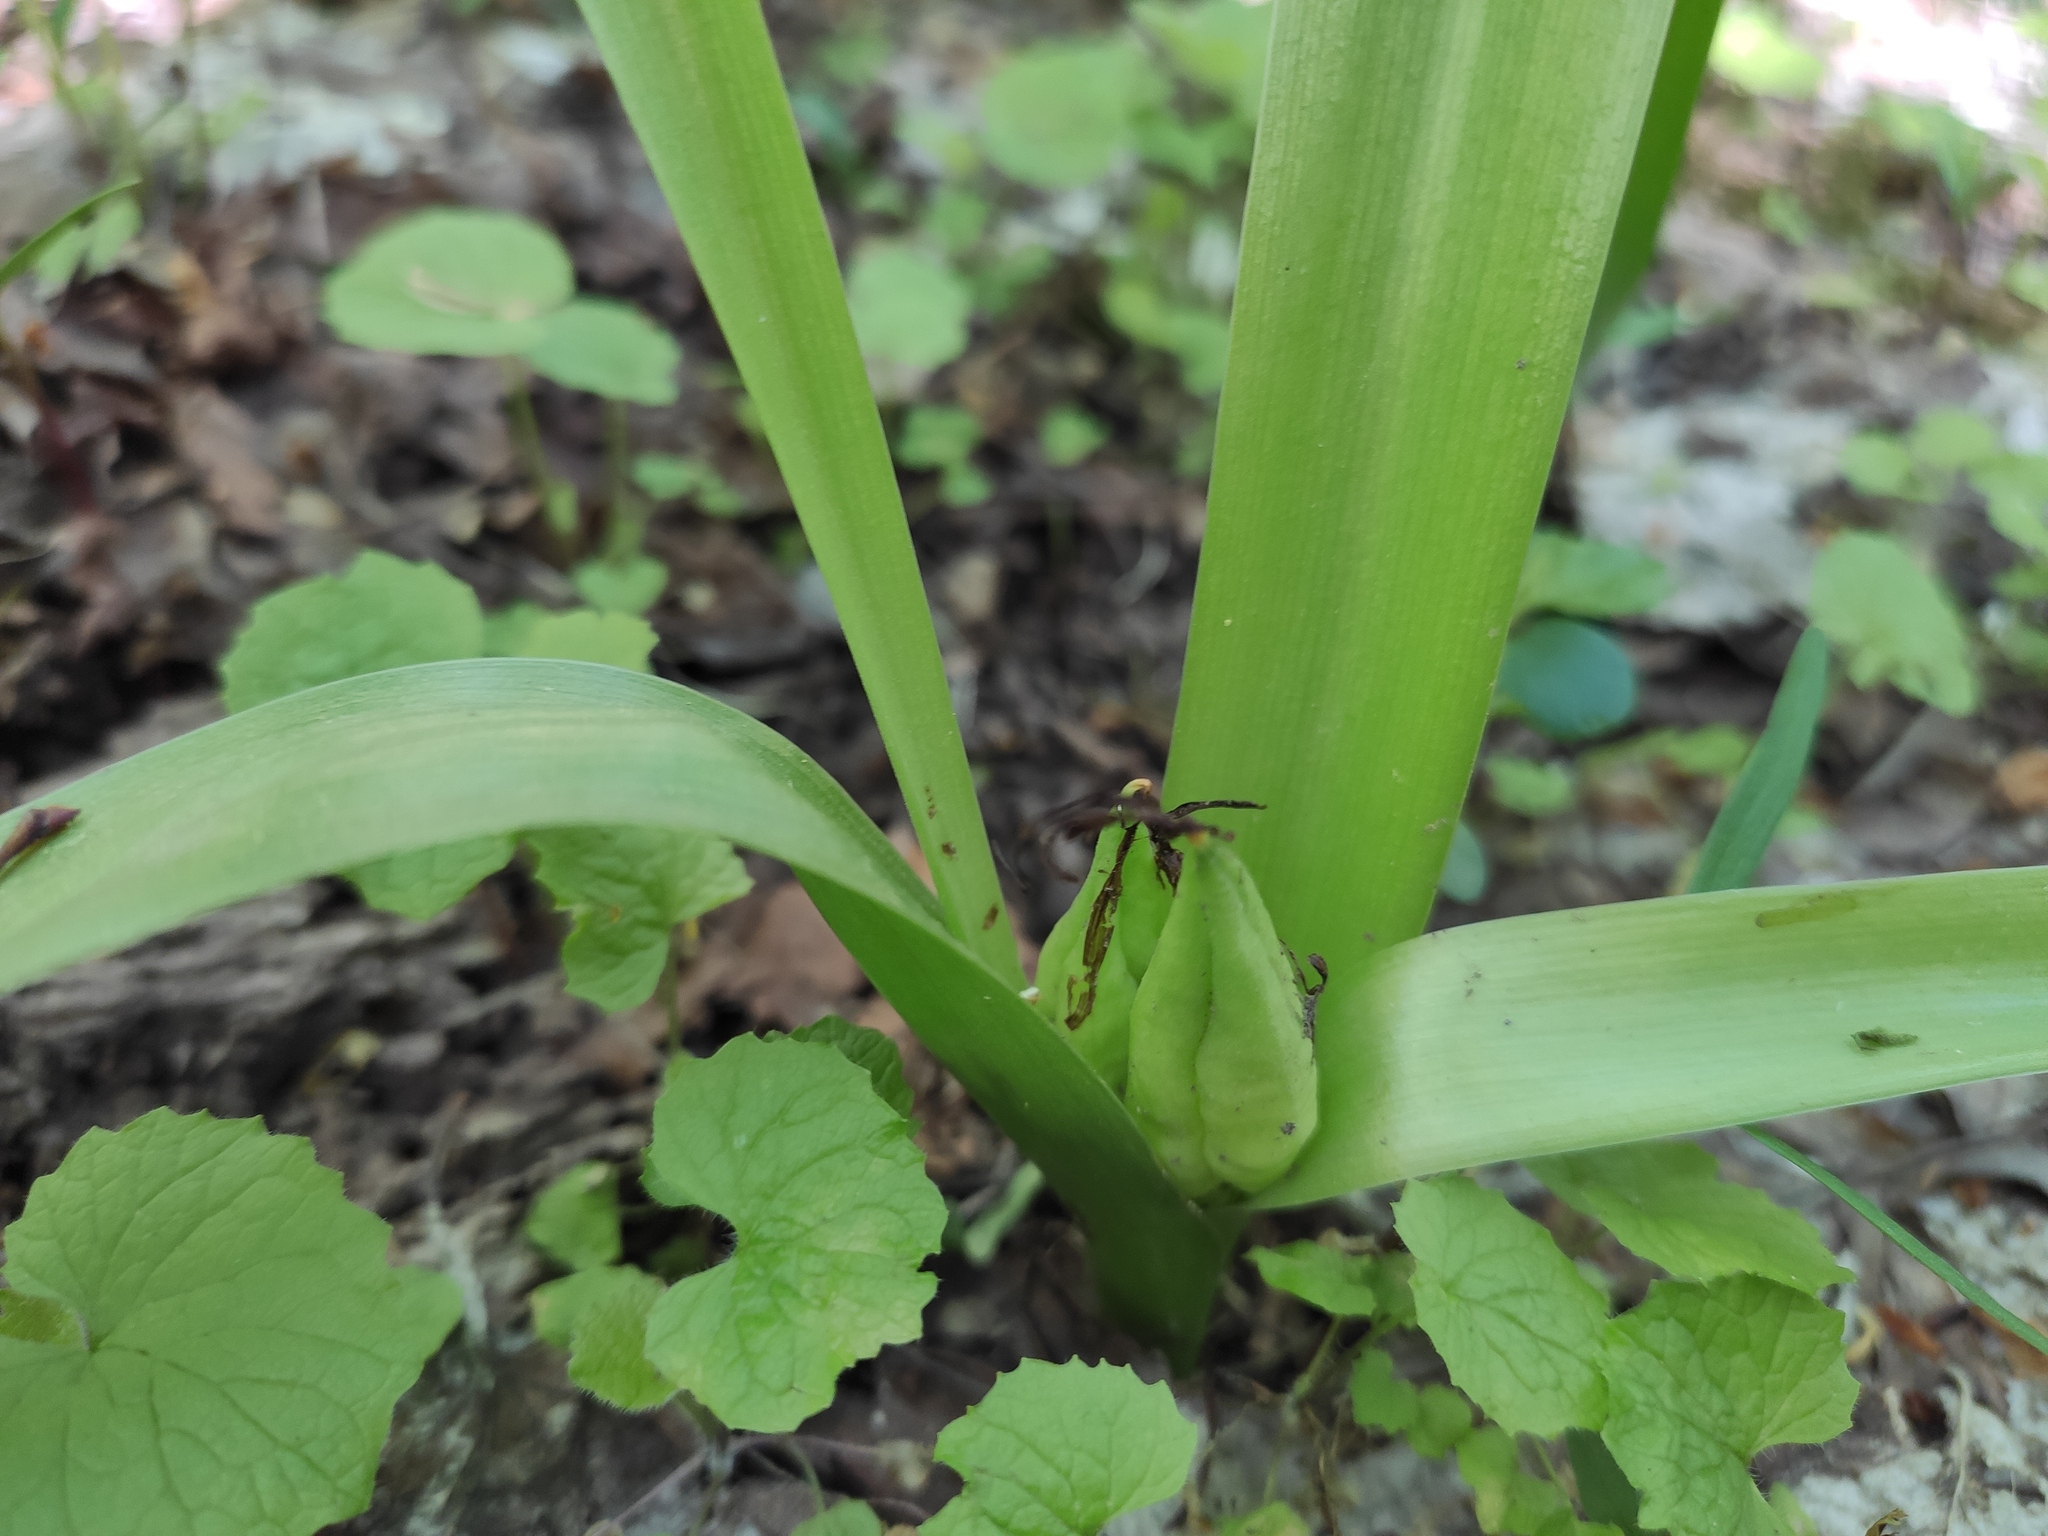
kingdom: Plantae
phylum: Tracheophyta
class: Liliopsida
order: Liliales
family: Colchicaceae
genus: Colchicum
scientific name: Colchicum umbrosum
